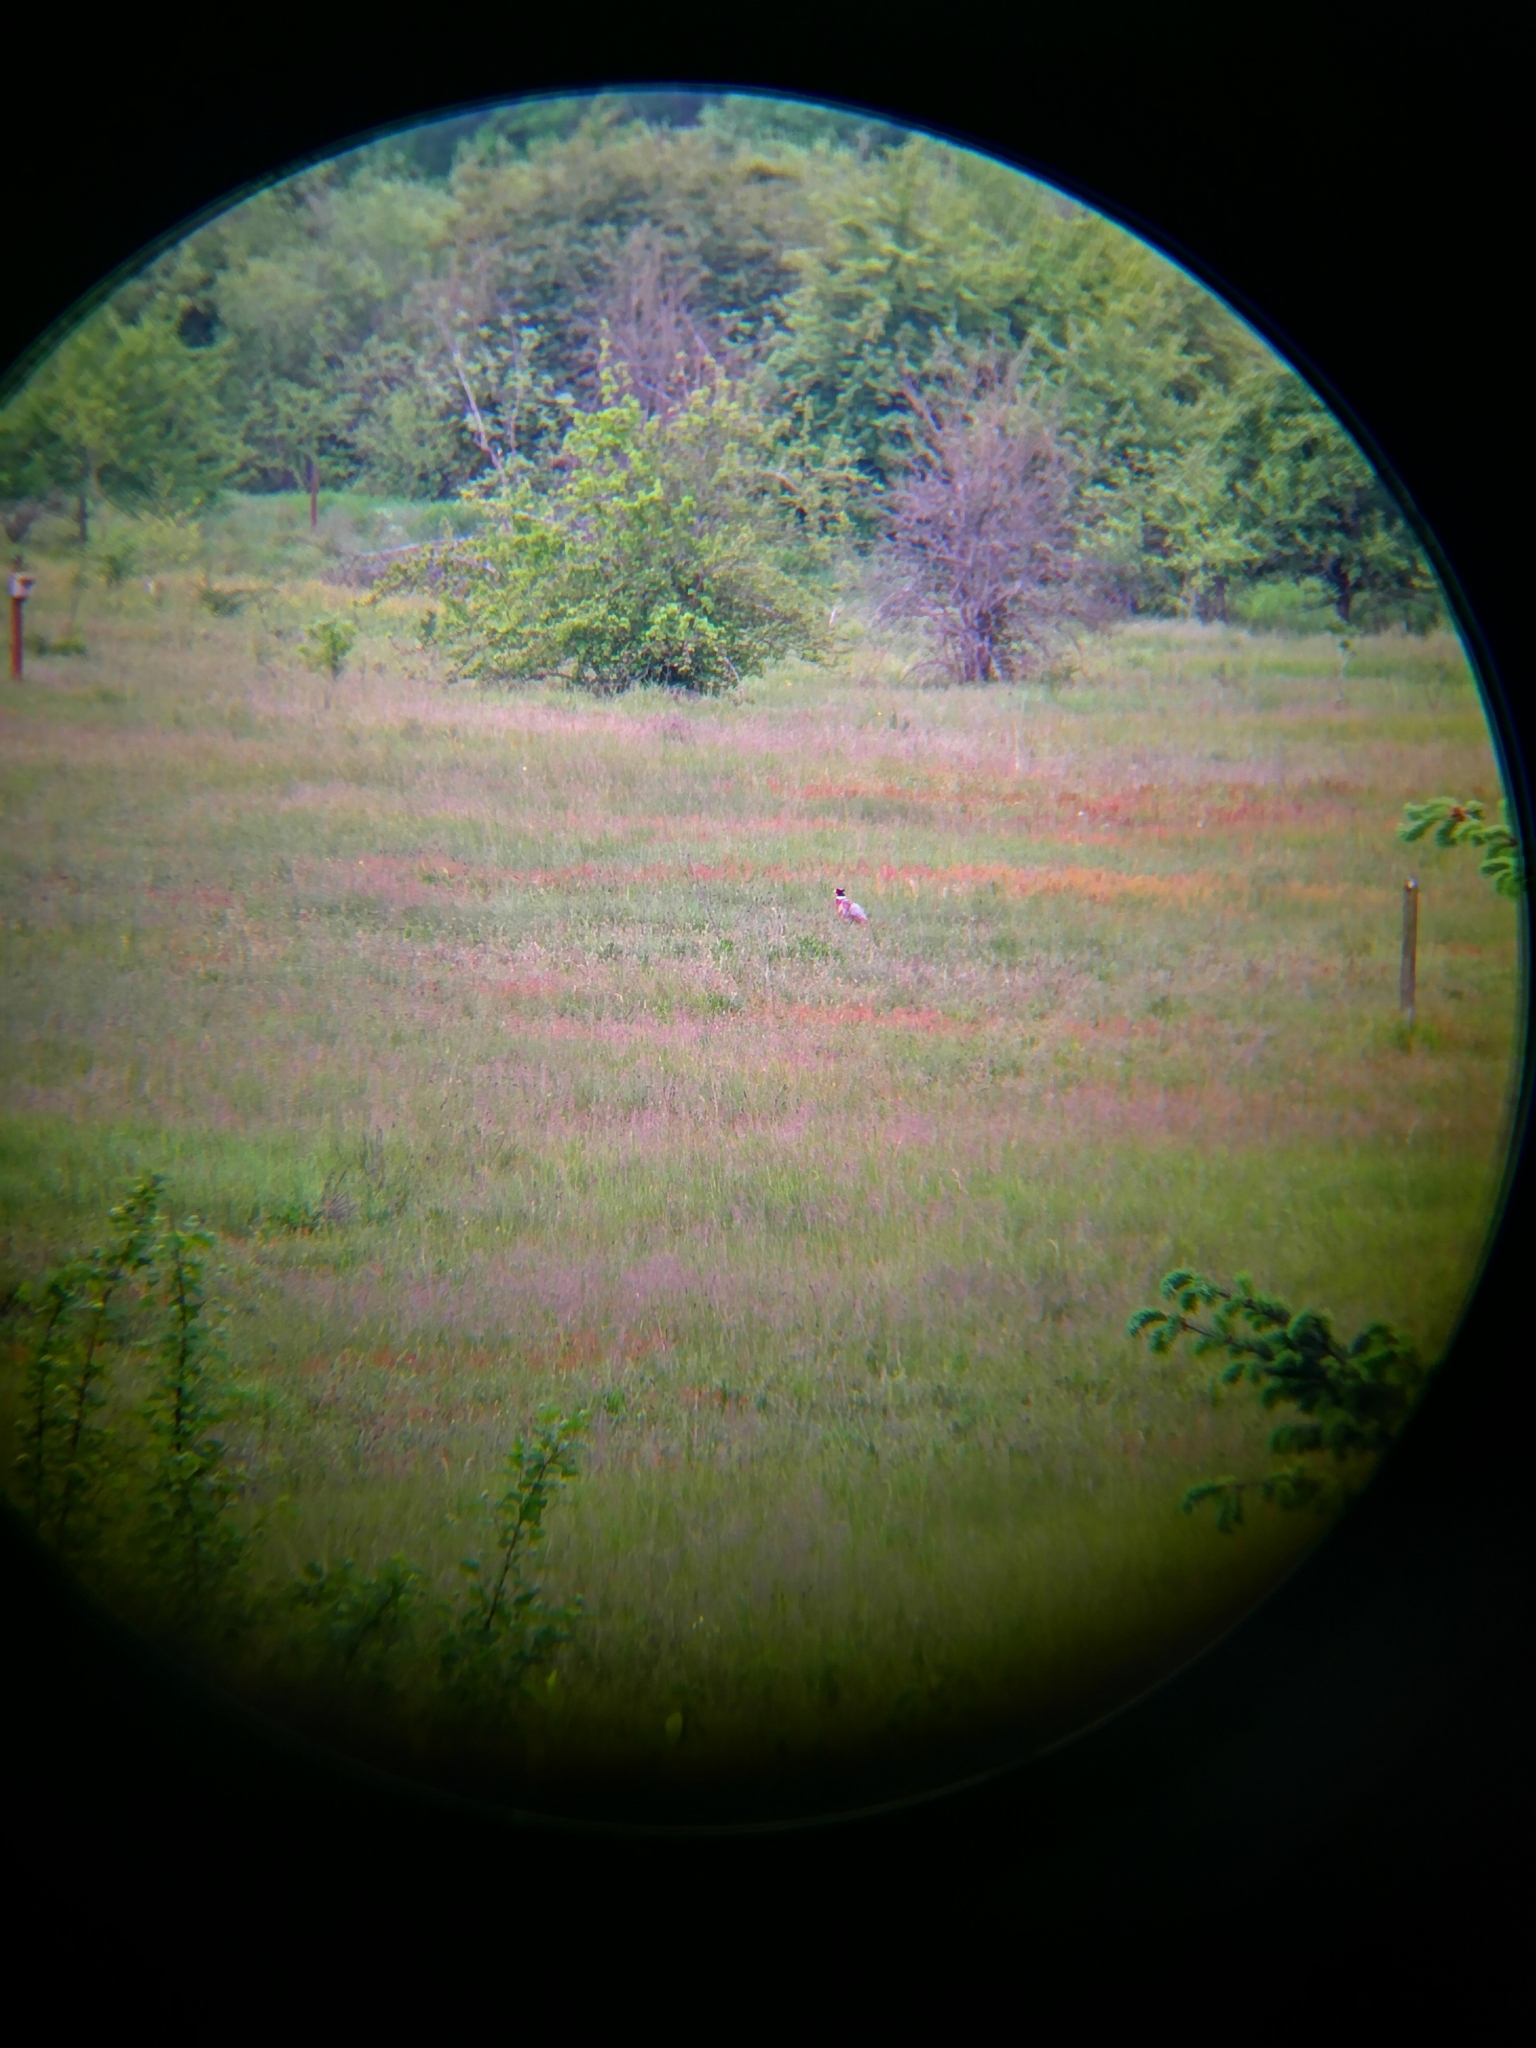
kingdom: Animalia
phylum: Chordata
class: Aves
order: Galliformes
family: Phasianidae
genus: Phasianus
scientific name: Phasianus colchicus
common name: Common pheasant
